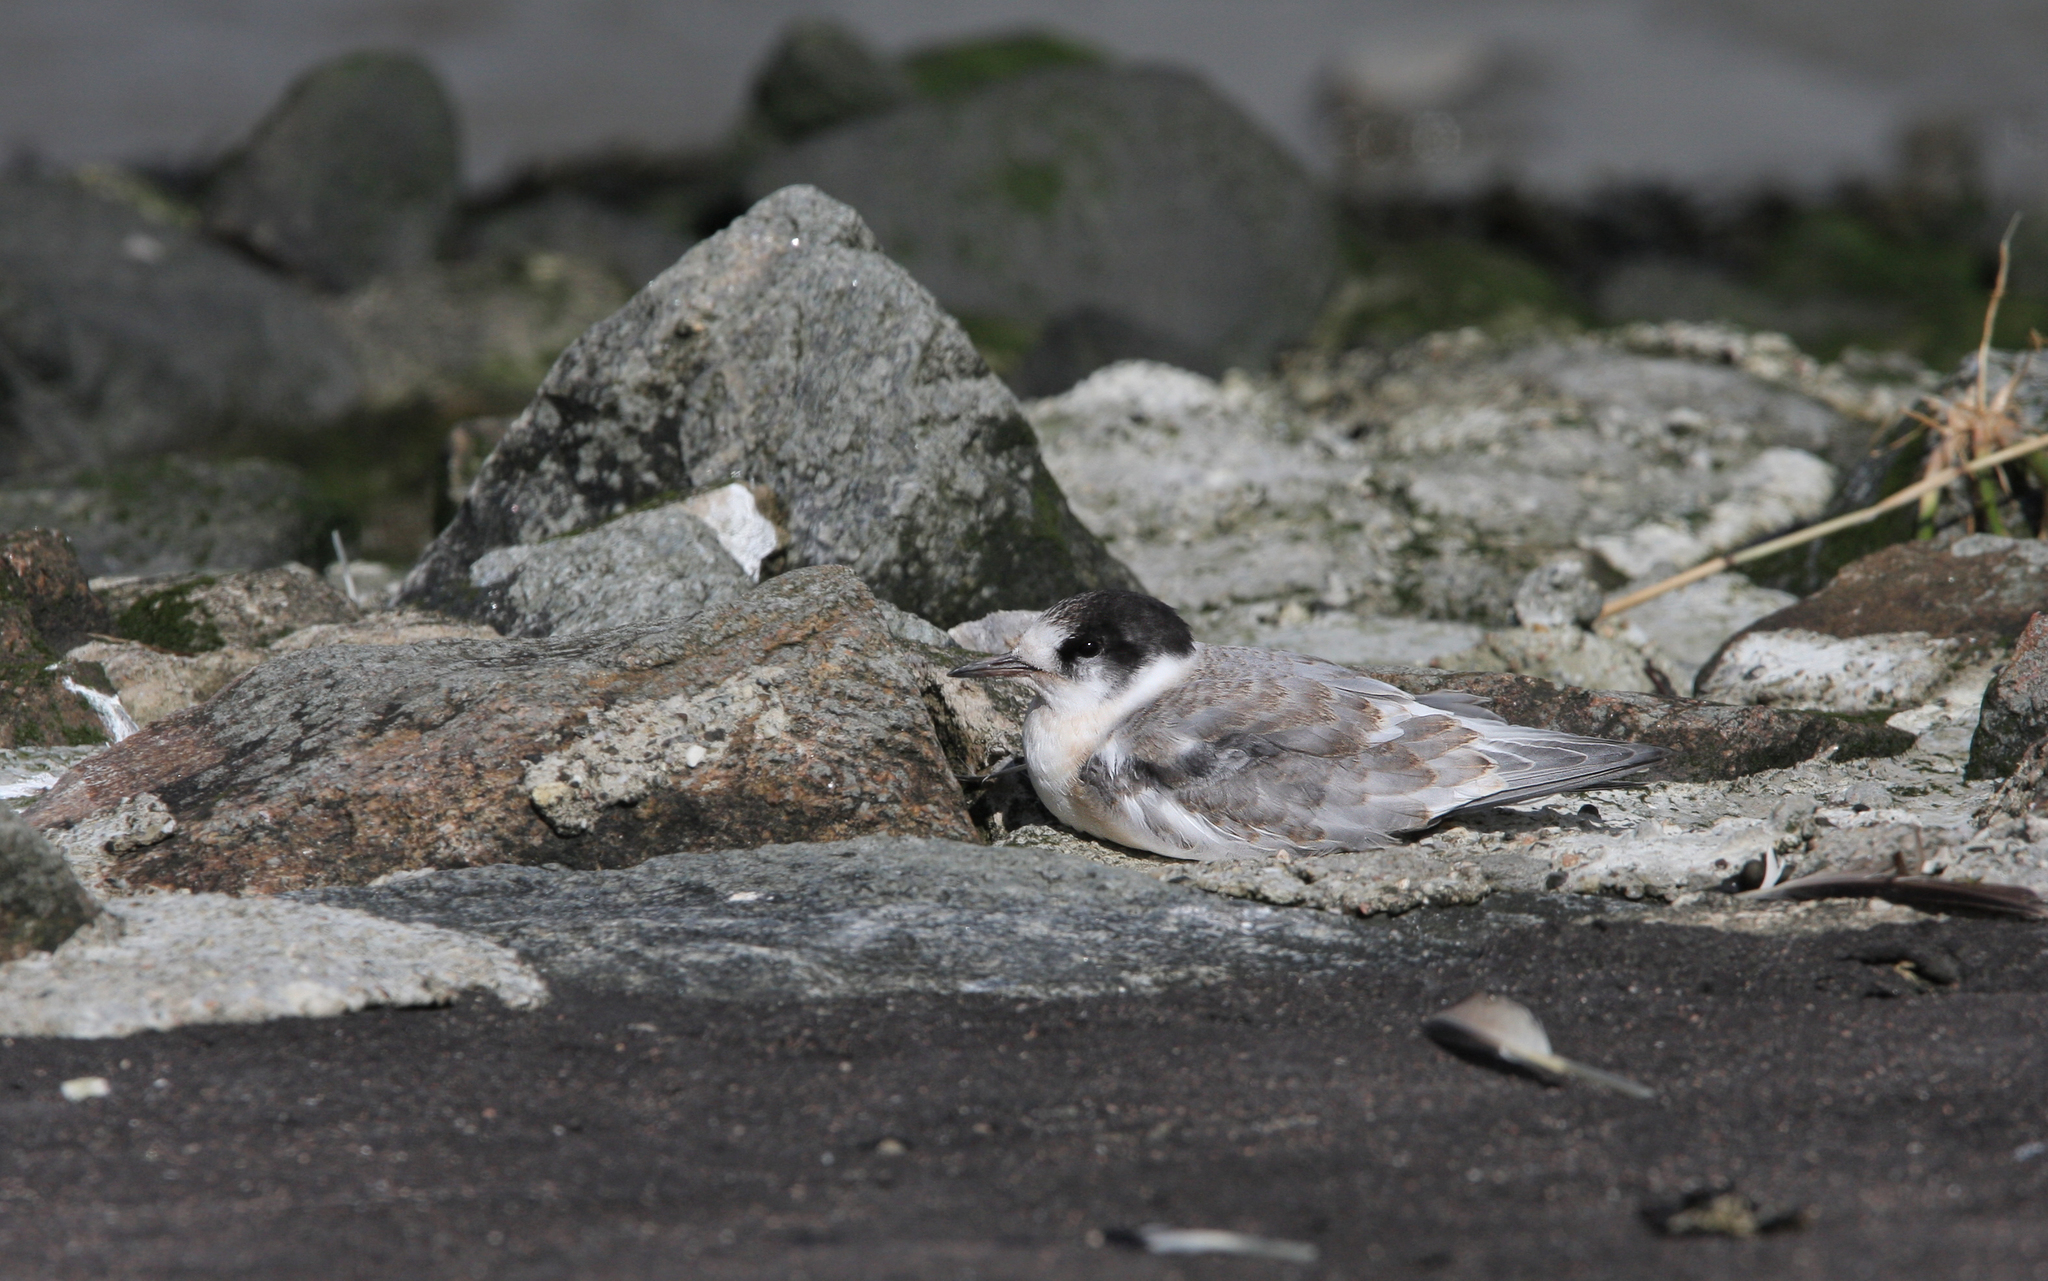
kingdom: Animalia
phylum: Chordata
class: Aves
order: Charadriiformes
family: Laridae
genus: Sterna
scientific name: Sterna paradisaea
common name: Arctic tern
